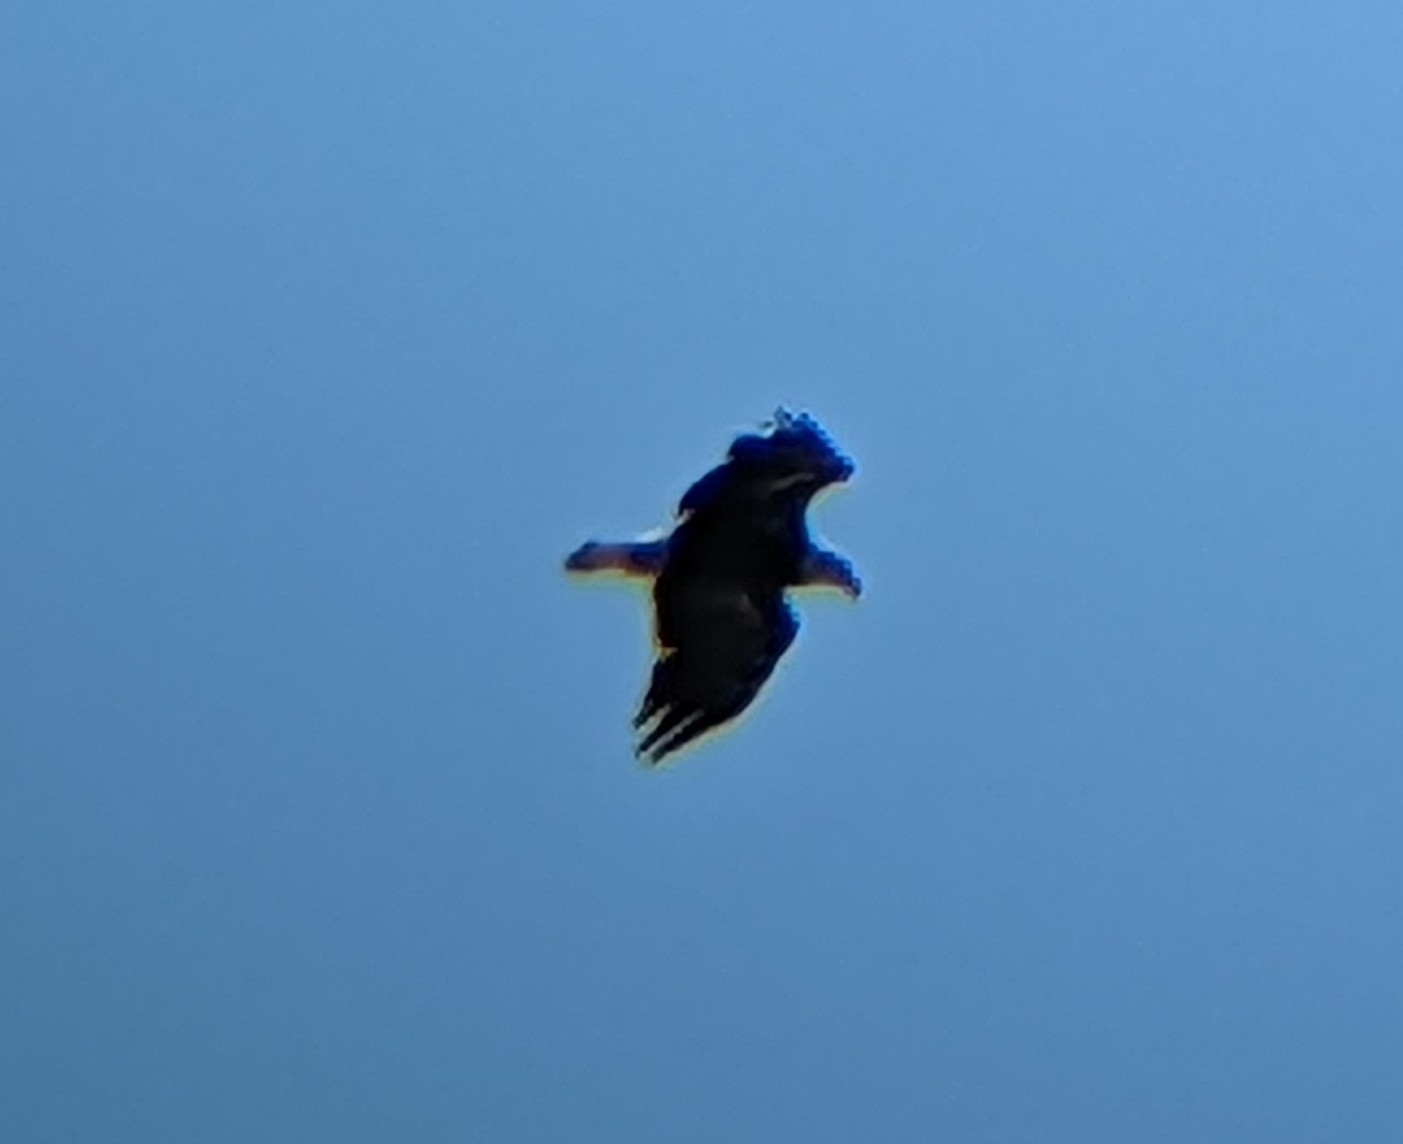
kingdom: Animalia
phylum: Chordata
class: Aves
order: Accipitriformes
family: Accipitridae
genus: Haliaeetus
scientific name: Haliaeetus leucocephalus
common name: Bald eagle
